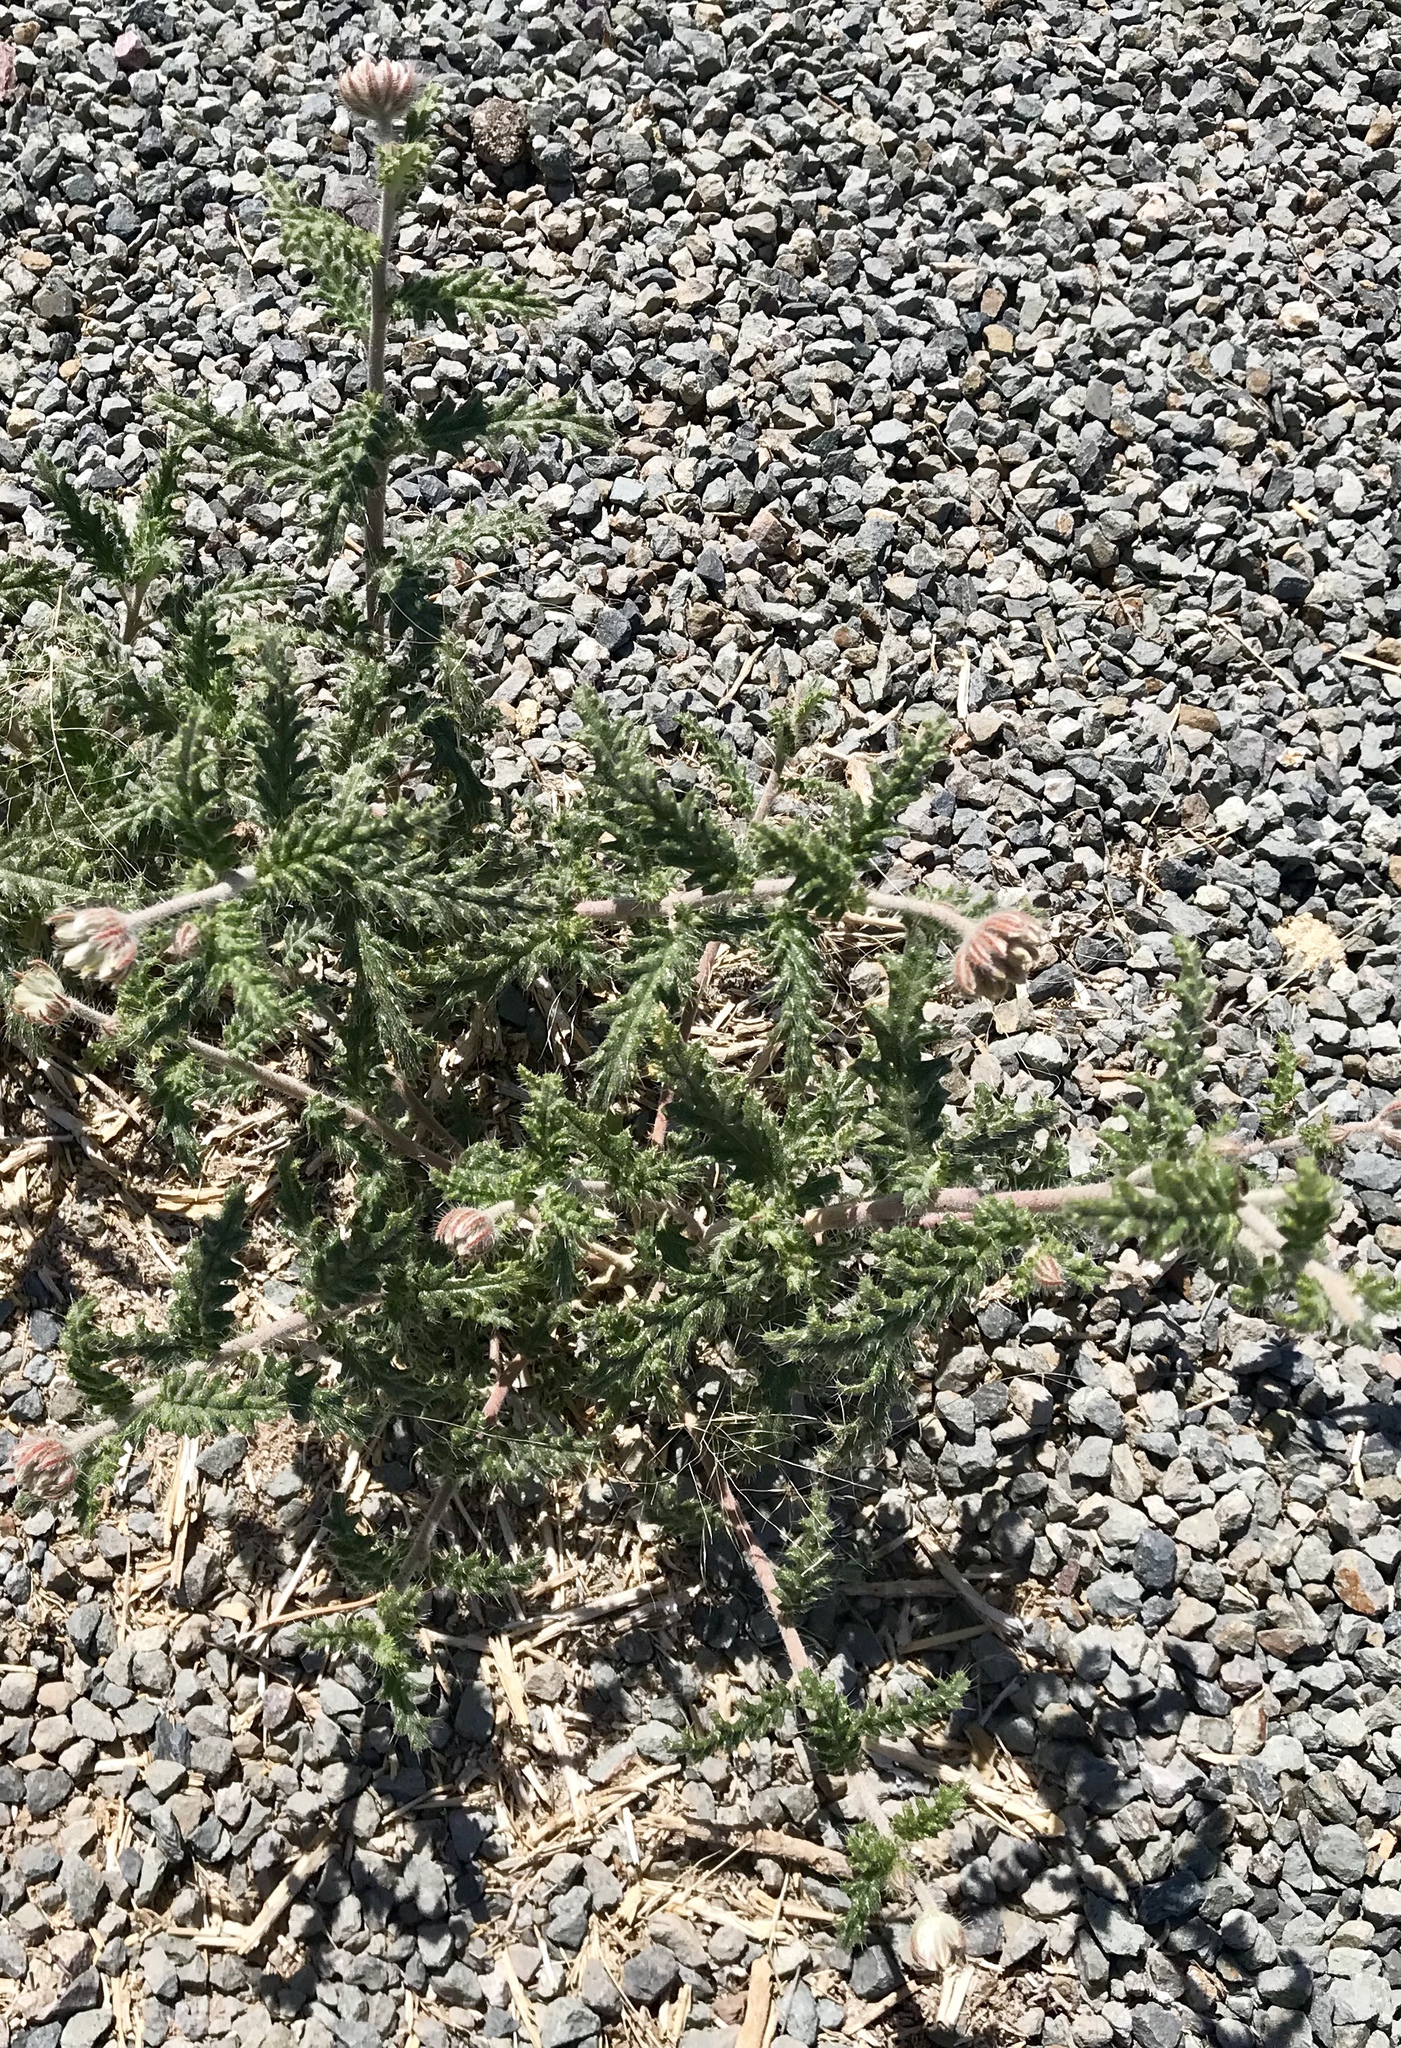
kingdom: Plantae
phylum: Tracheophyta
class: Magnoliopsida
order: Cornales
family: Loasaceae
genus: Cevallia
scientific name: Cevallia sinuata
